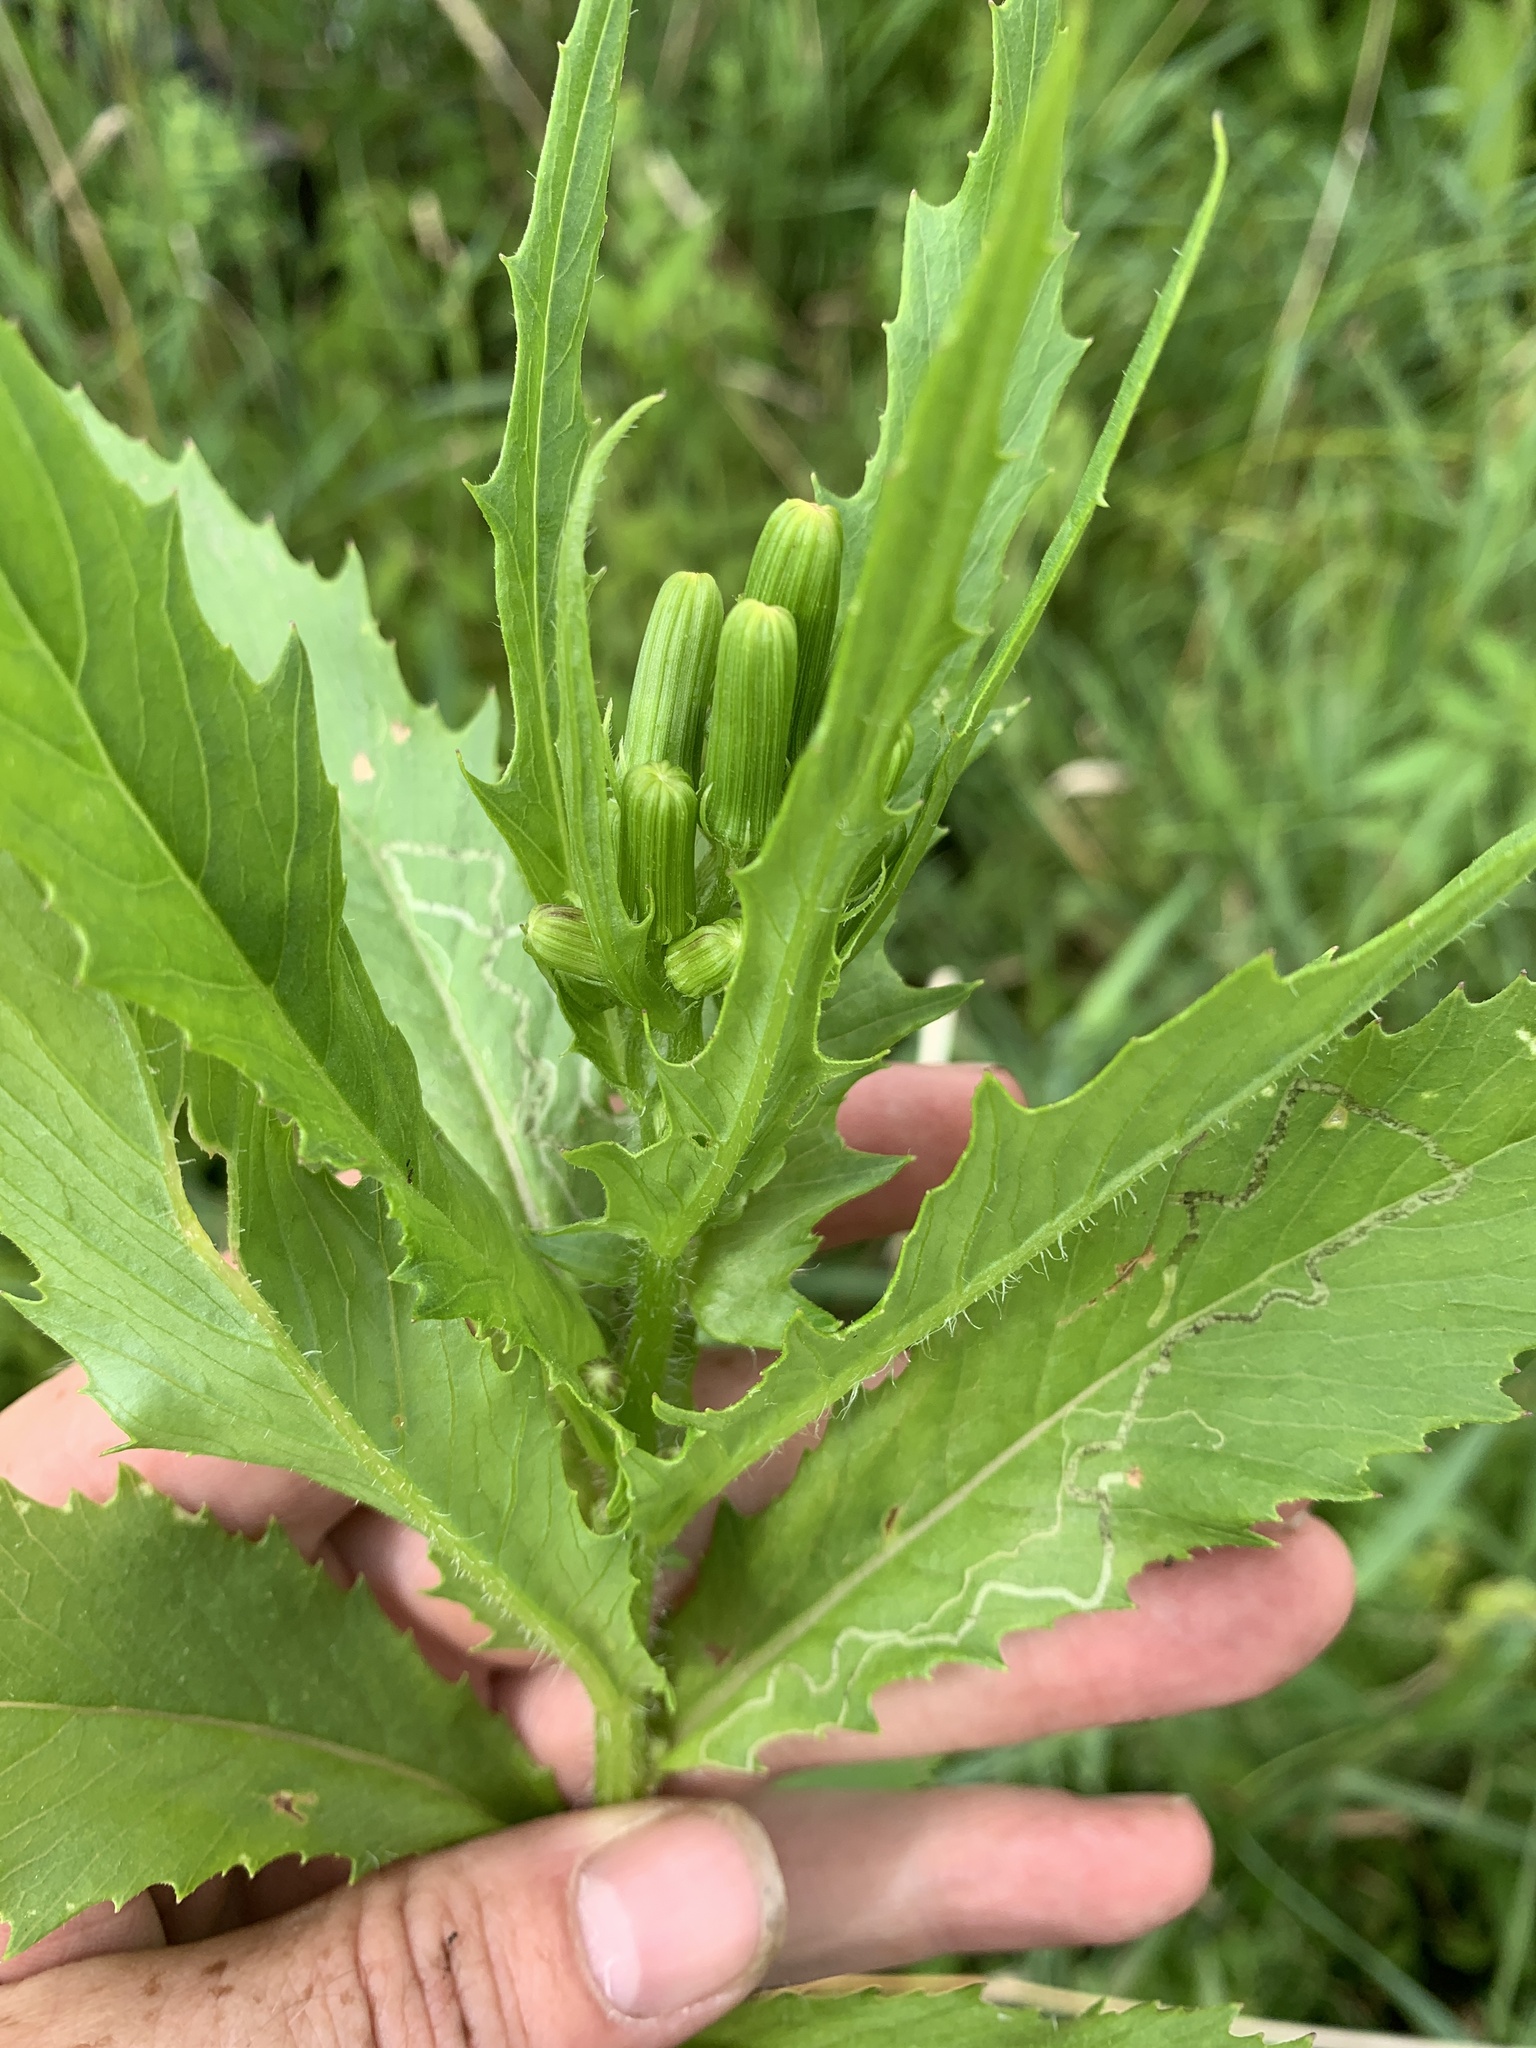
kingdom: Plantae
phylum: Tracheophyta
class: Magnoliopsida
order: Asterales
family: Asteraceae
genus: Erechtites
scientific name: Erechtites hieraciifolius
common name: American burnweed
